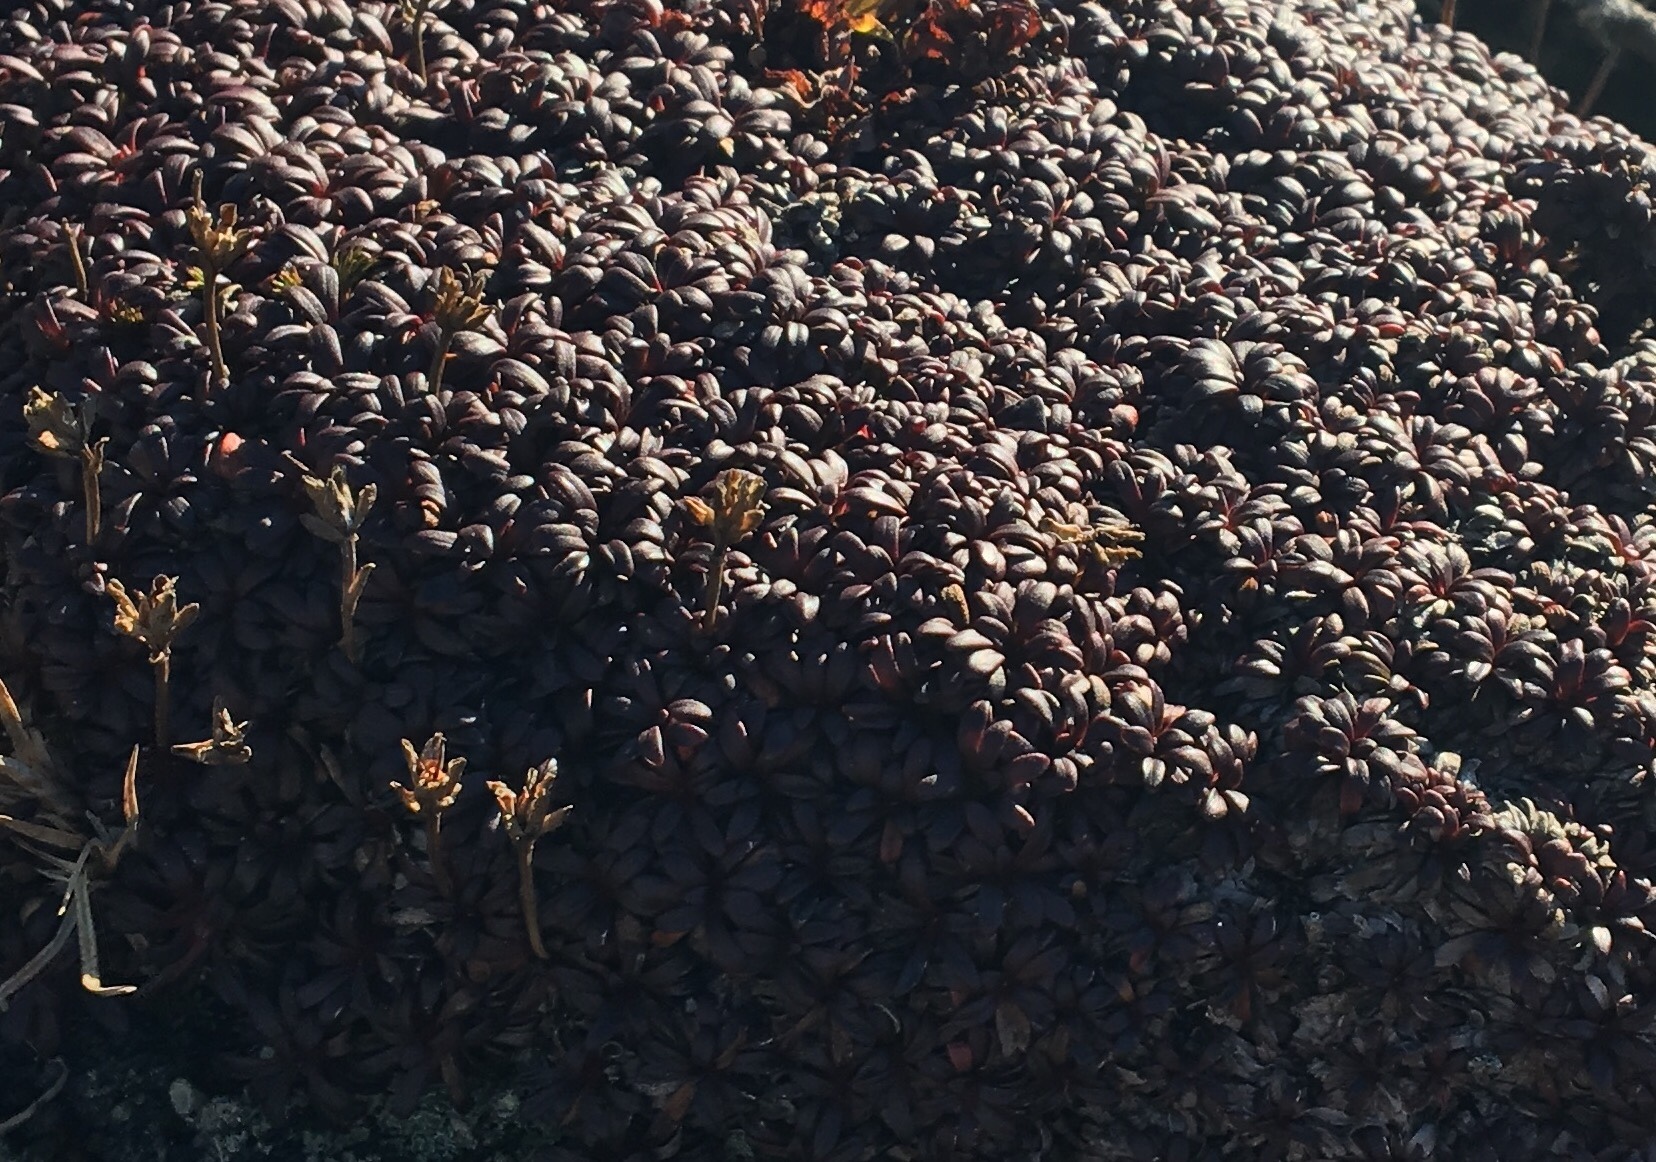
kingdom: Plantae
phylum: Tracheophyta
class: Magnoliopsida
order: Ericales
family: Diapensiaceae
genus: Diapensia
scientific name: Diapensia lapponica
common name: Diapensia
